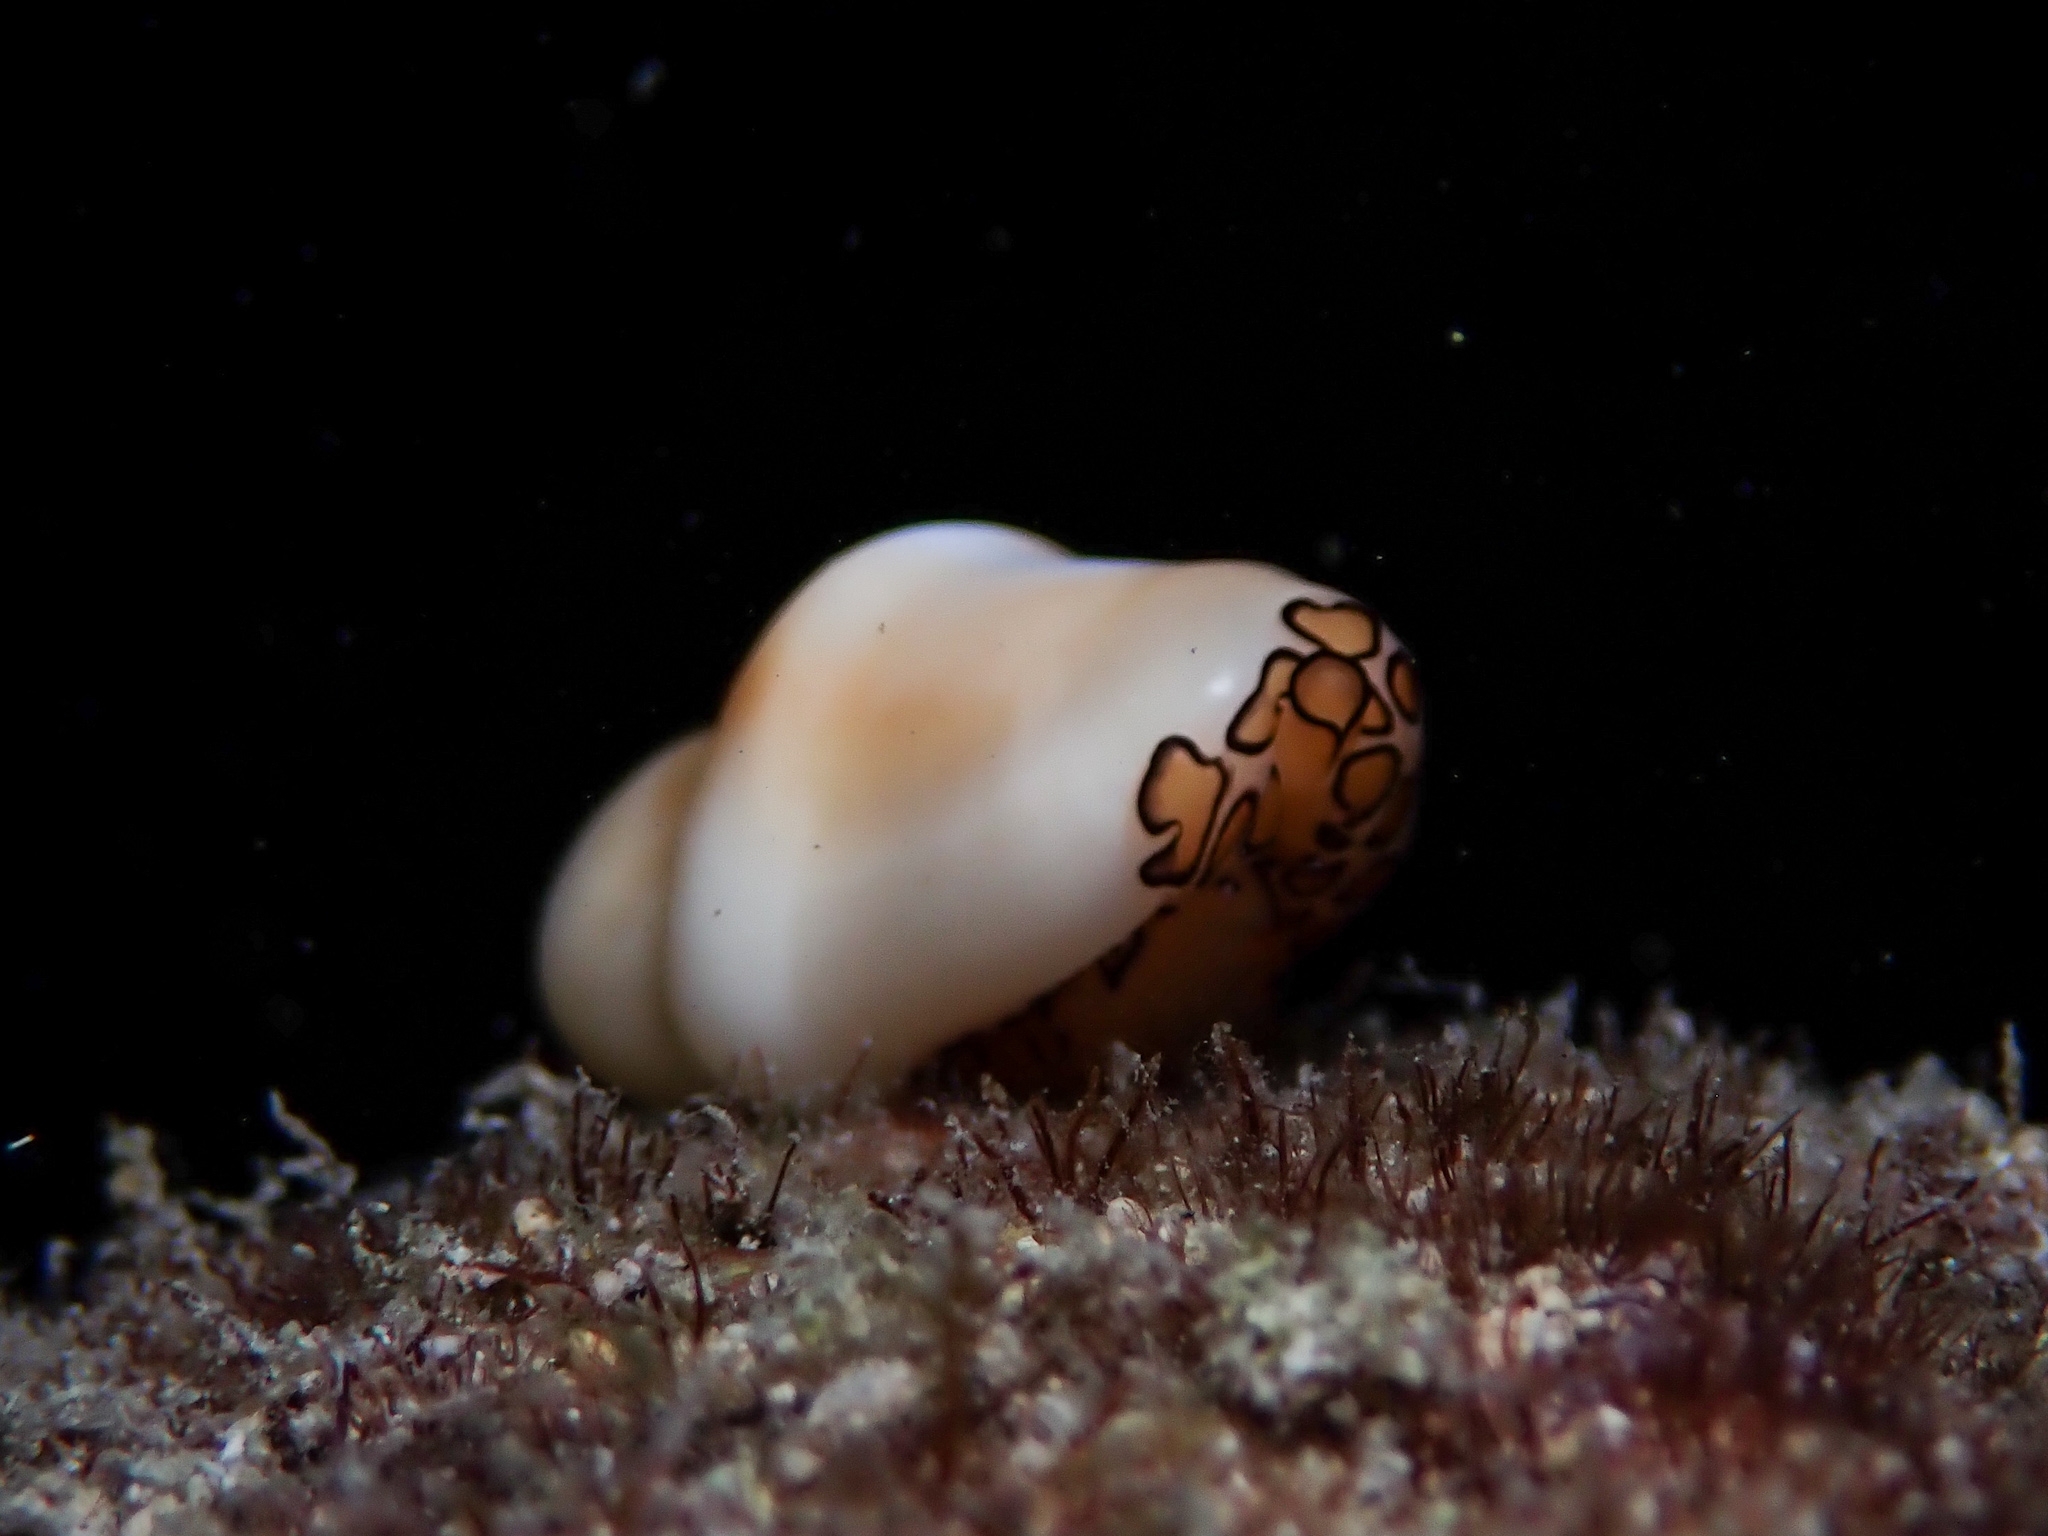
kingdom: Animalia
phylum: Mollusca
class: Gastropoda
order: Littorinimorpha
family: Ovulidae
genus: Cyphoma
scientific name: Cyphoma gibbosum
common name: Flamingo tongue
